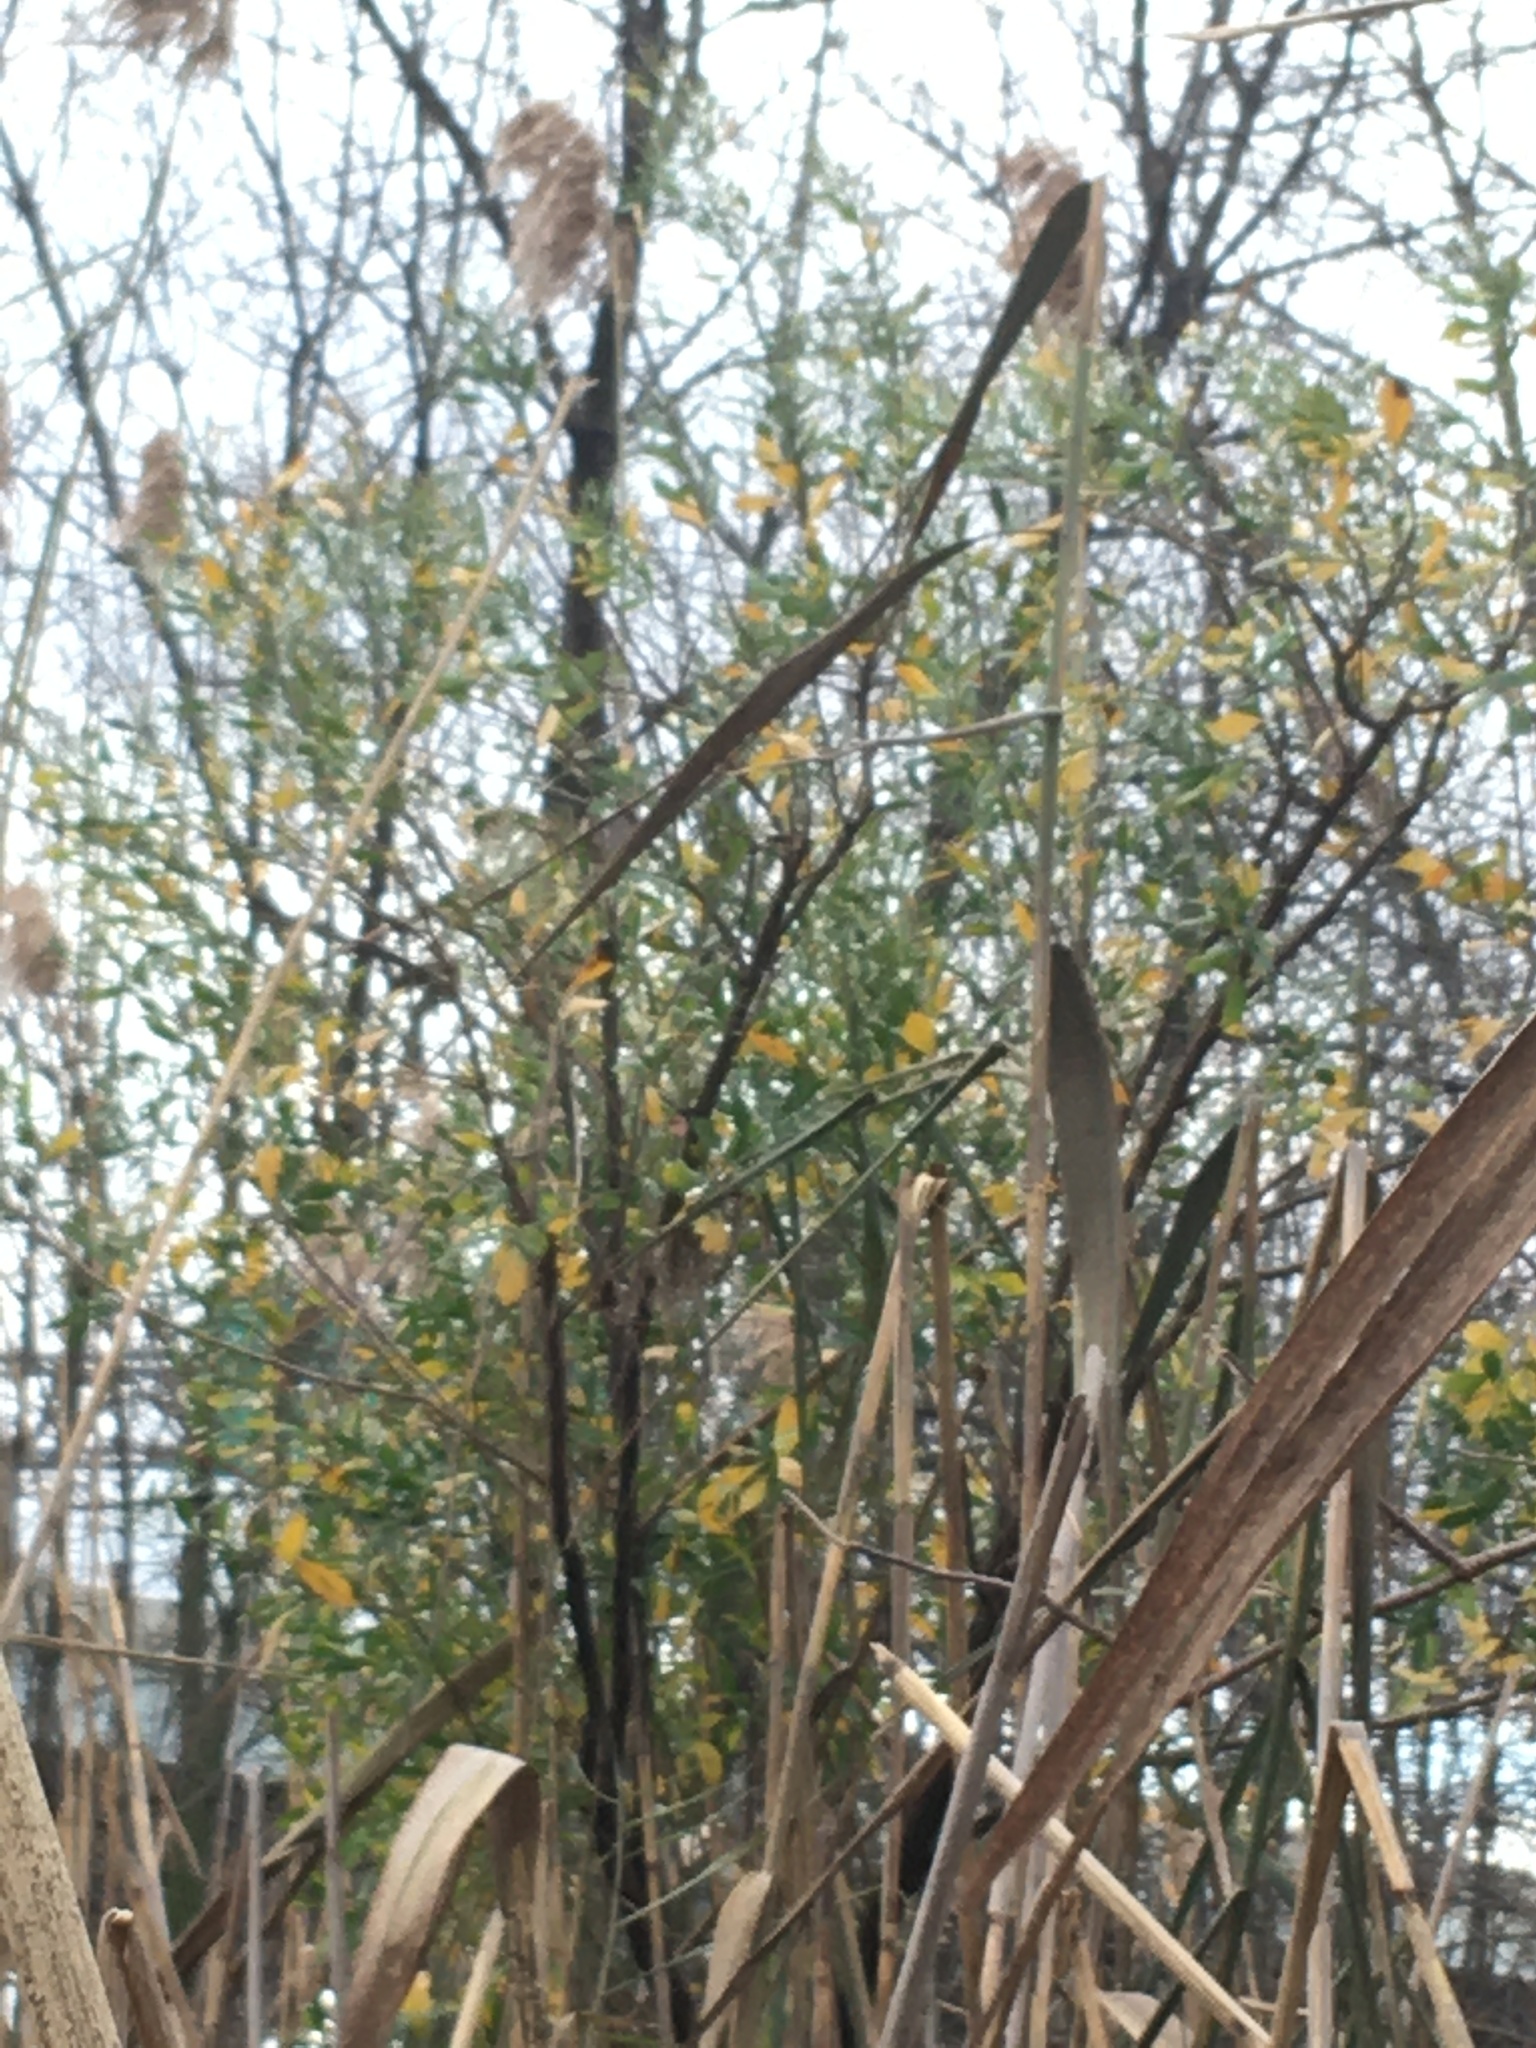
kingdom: Plantae
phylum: Tracheophyta
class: Magnoliopsida
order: Asterales
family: Asteraceae
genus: Baccharis
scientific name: Baccharis halimifolia
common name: Eastern baccharis
